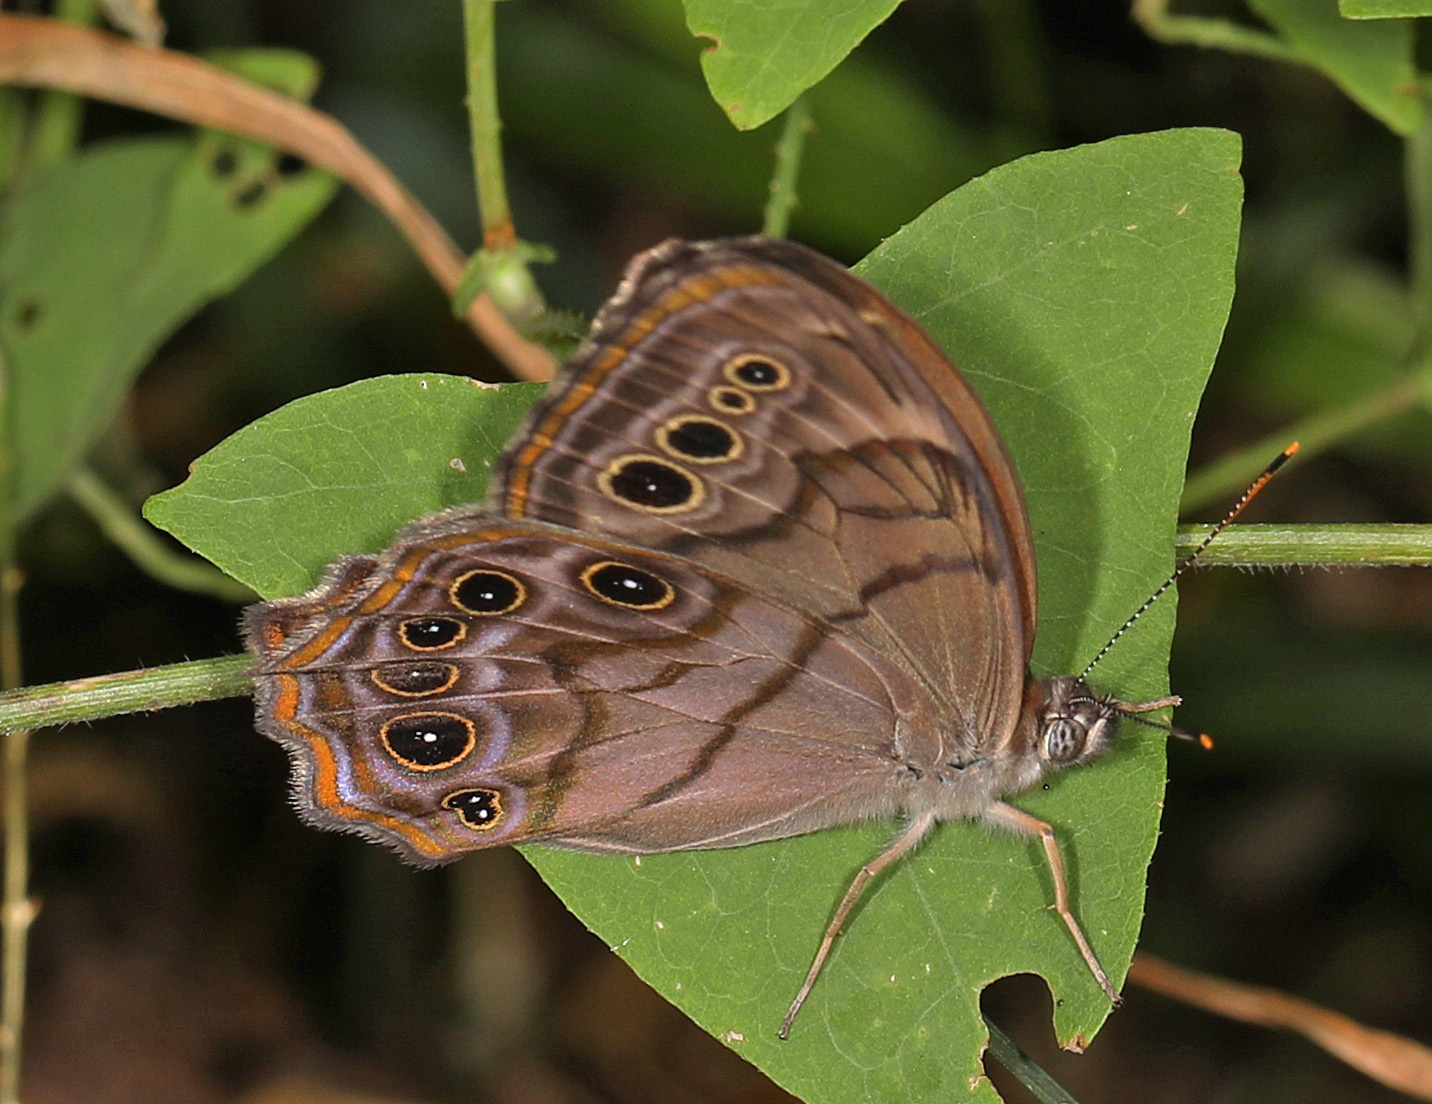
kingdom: Animalia
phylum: Arthropoda
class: Insecta
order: Lepidoptera
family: Nymphalidae
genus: Lethe
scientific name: Lethe anthedon
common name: Northern pearly-eye
